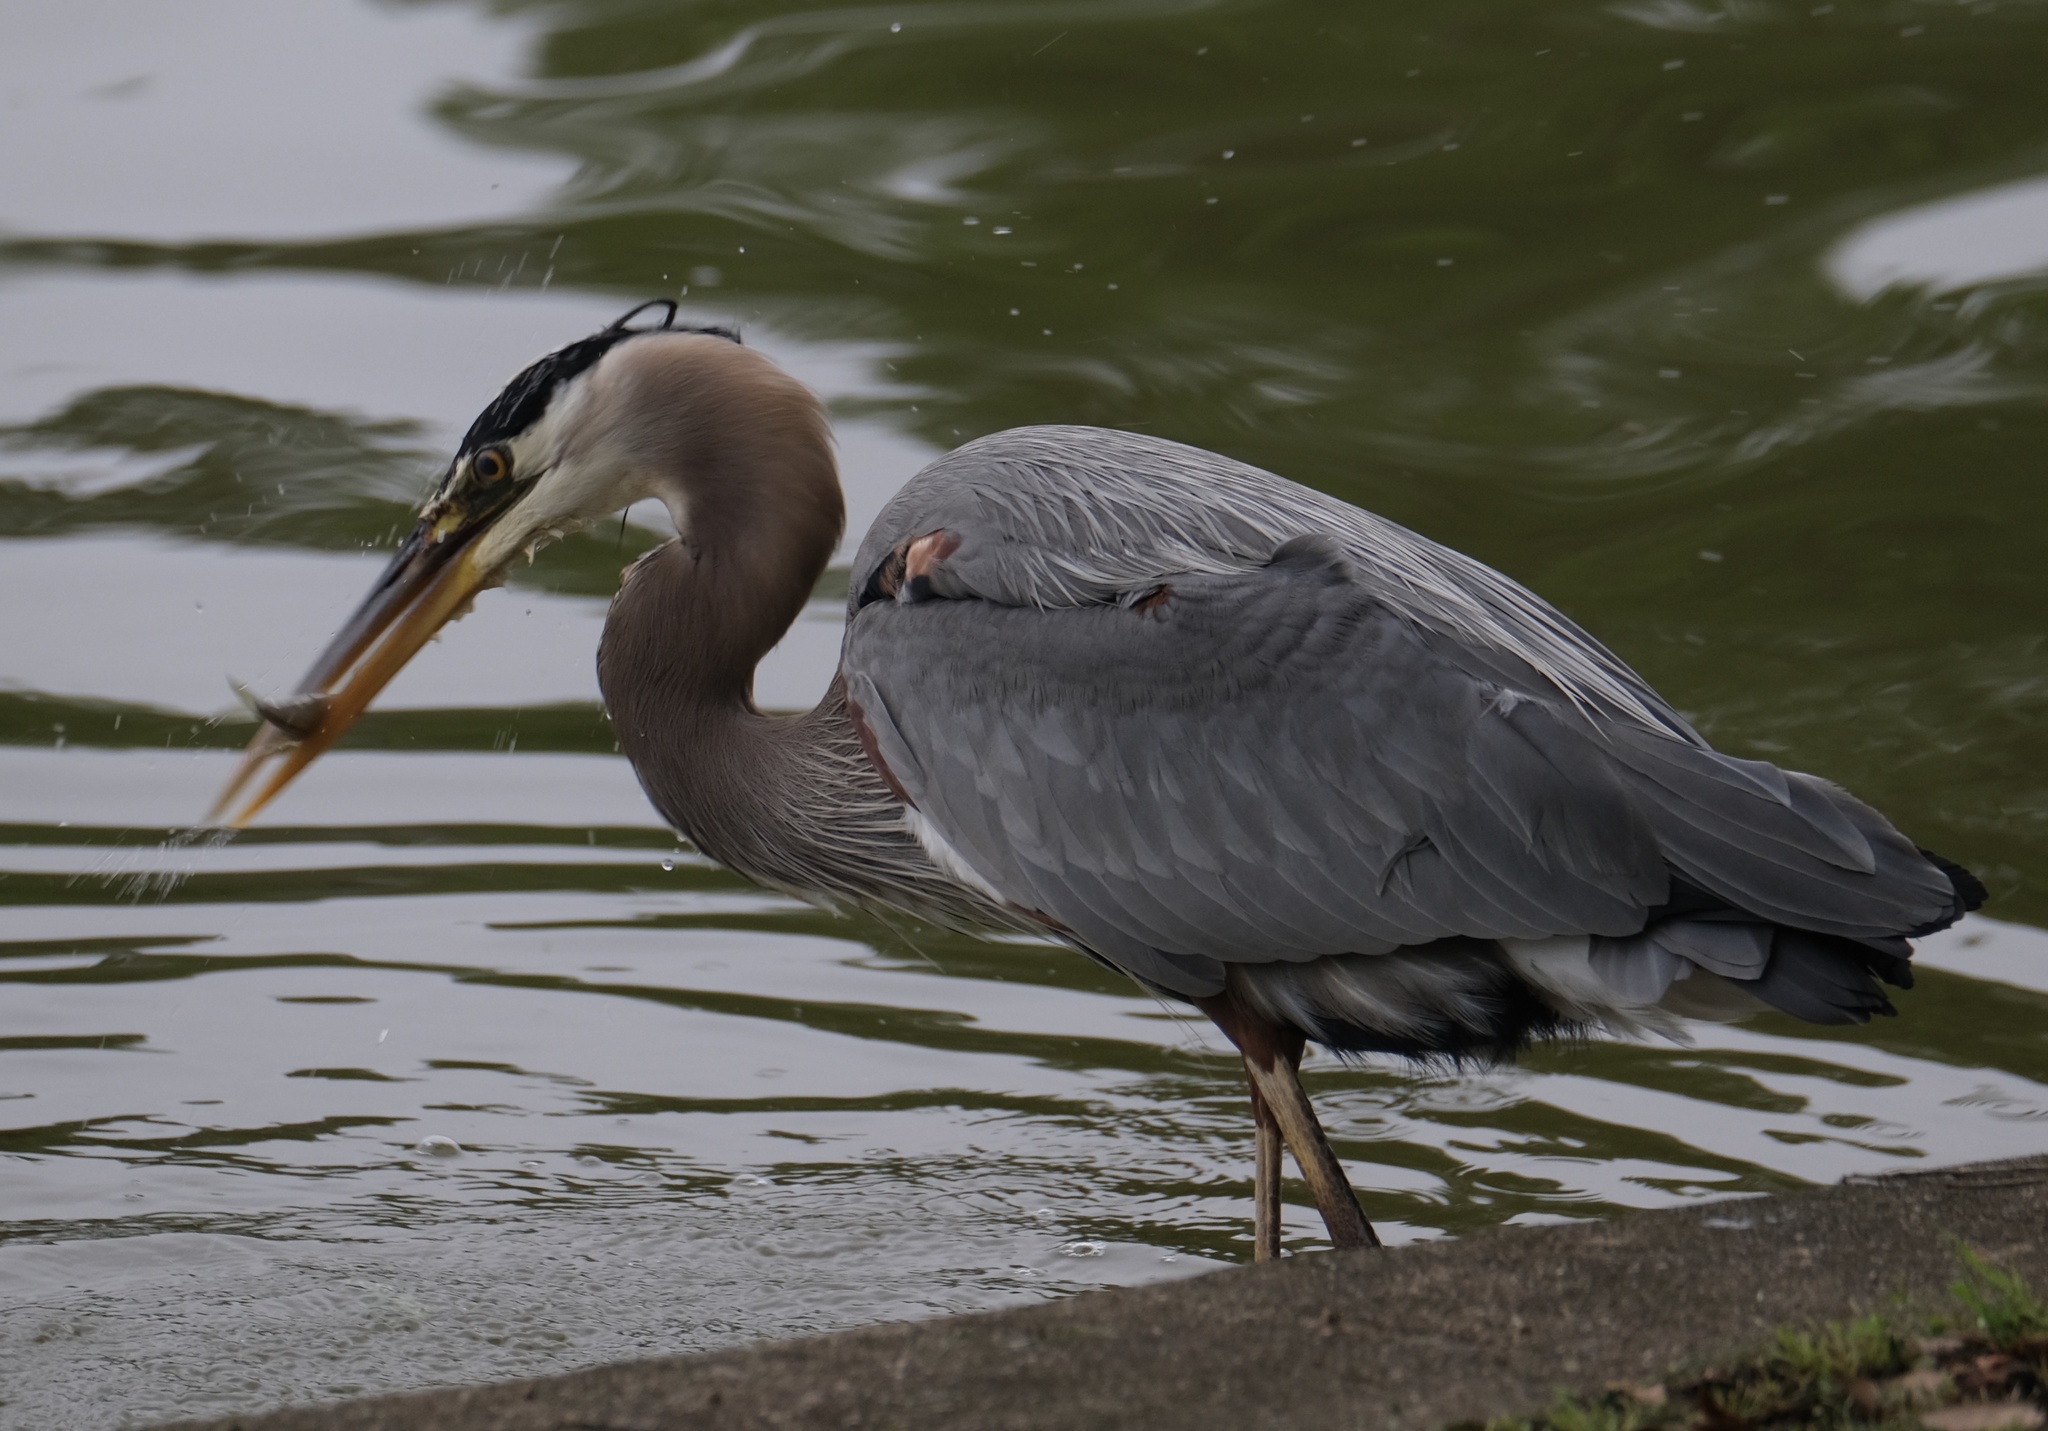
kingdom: Animalia
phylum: Chordata
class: Aves
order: Pelecaniformes
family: Ardeidae
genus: Ardea
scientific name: Ardea herodias
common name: Great blue heron
